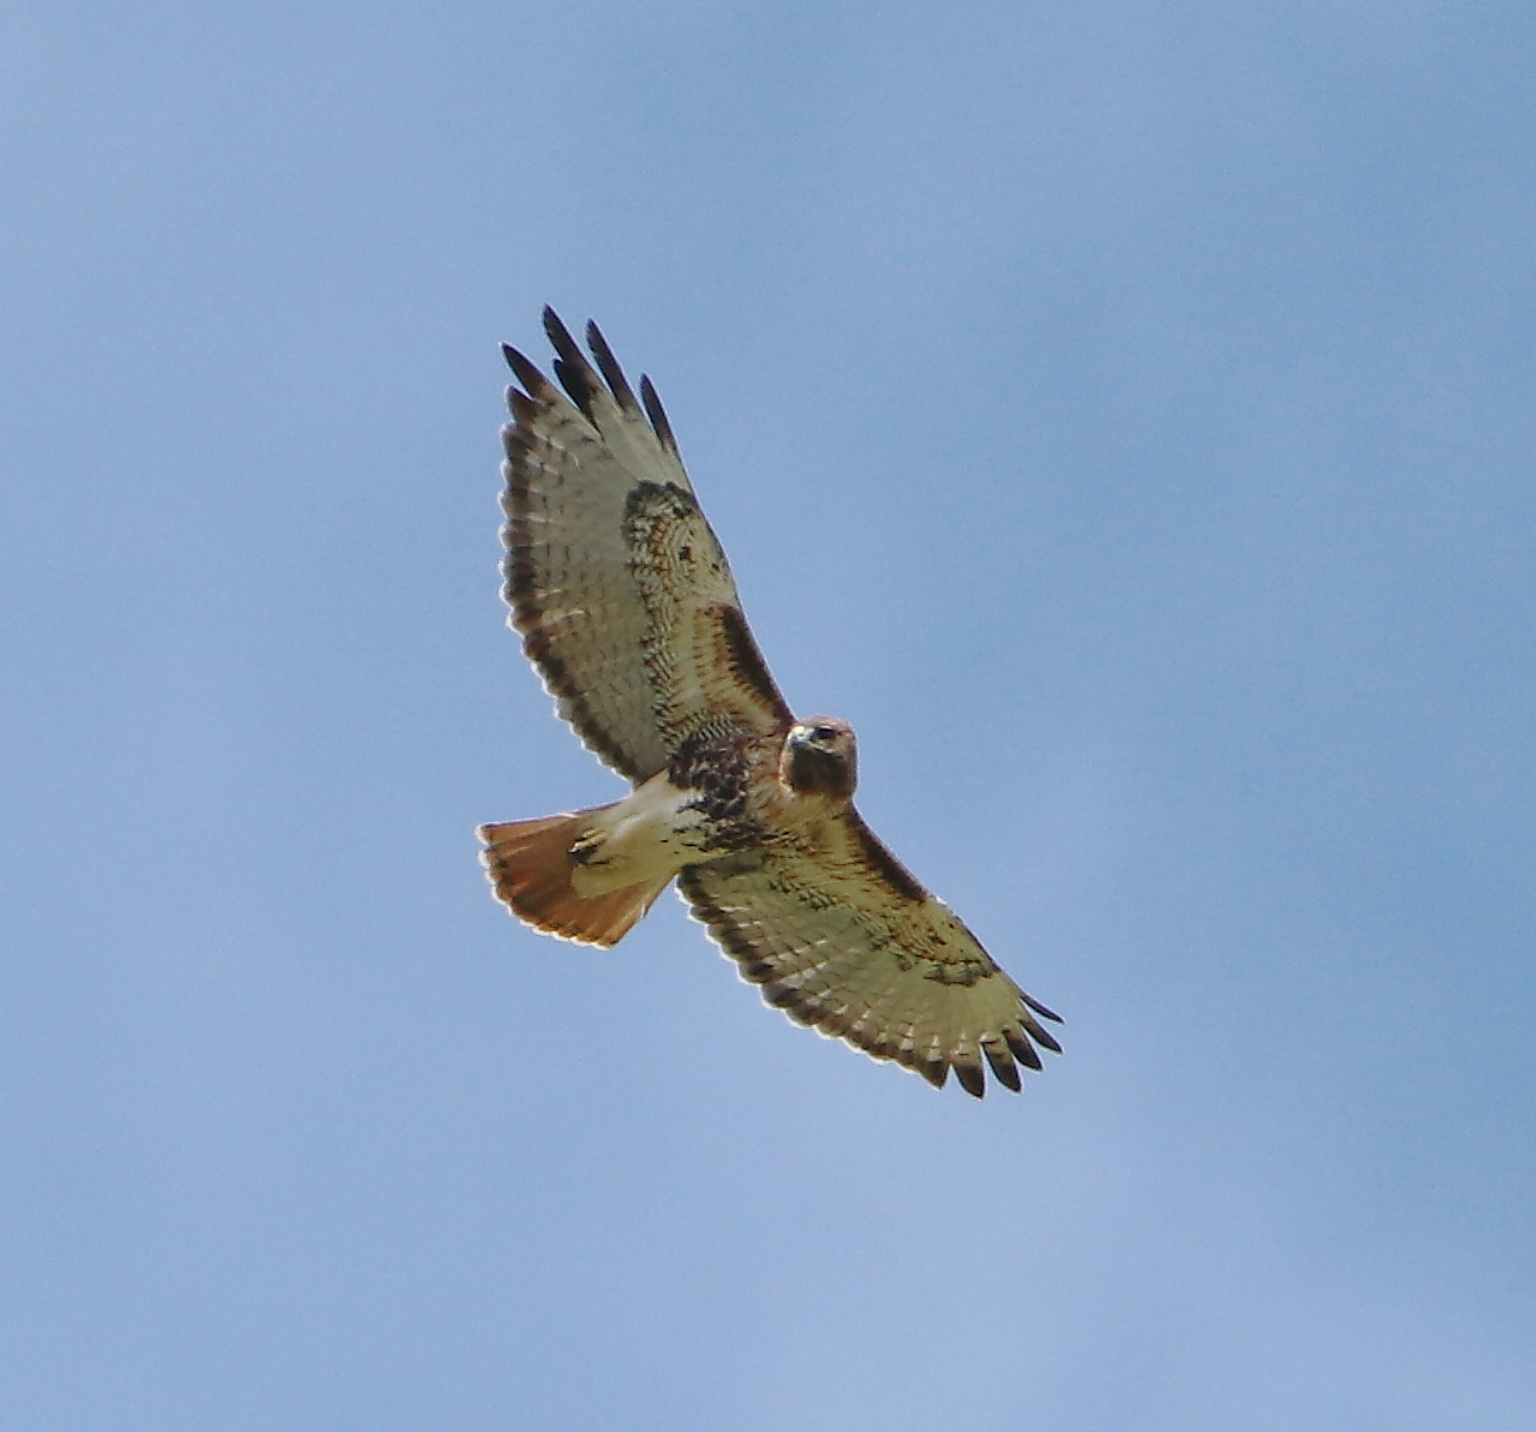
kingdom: Animalia
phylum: Chordata
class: Aves
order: Accipitriformes
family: Accipitridae
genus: Buteo
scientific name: Buteo jamaicensis
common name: Red-tailed hawk
